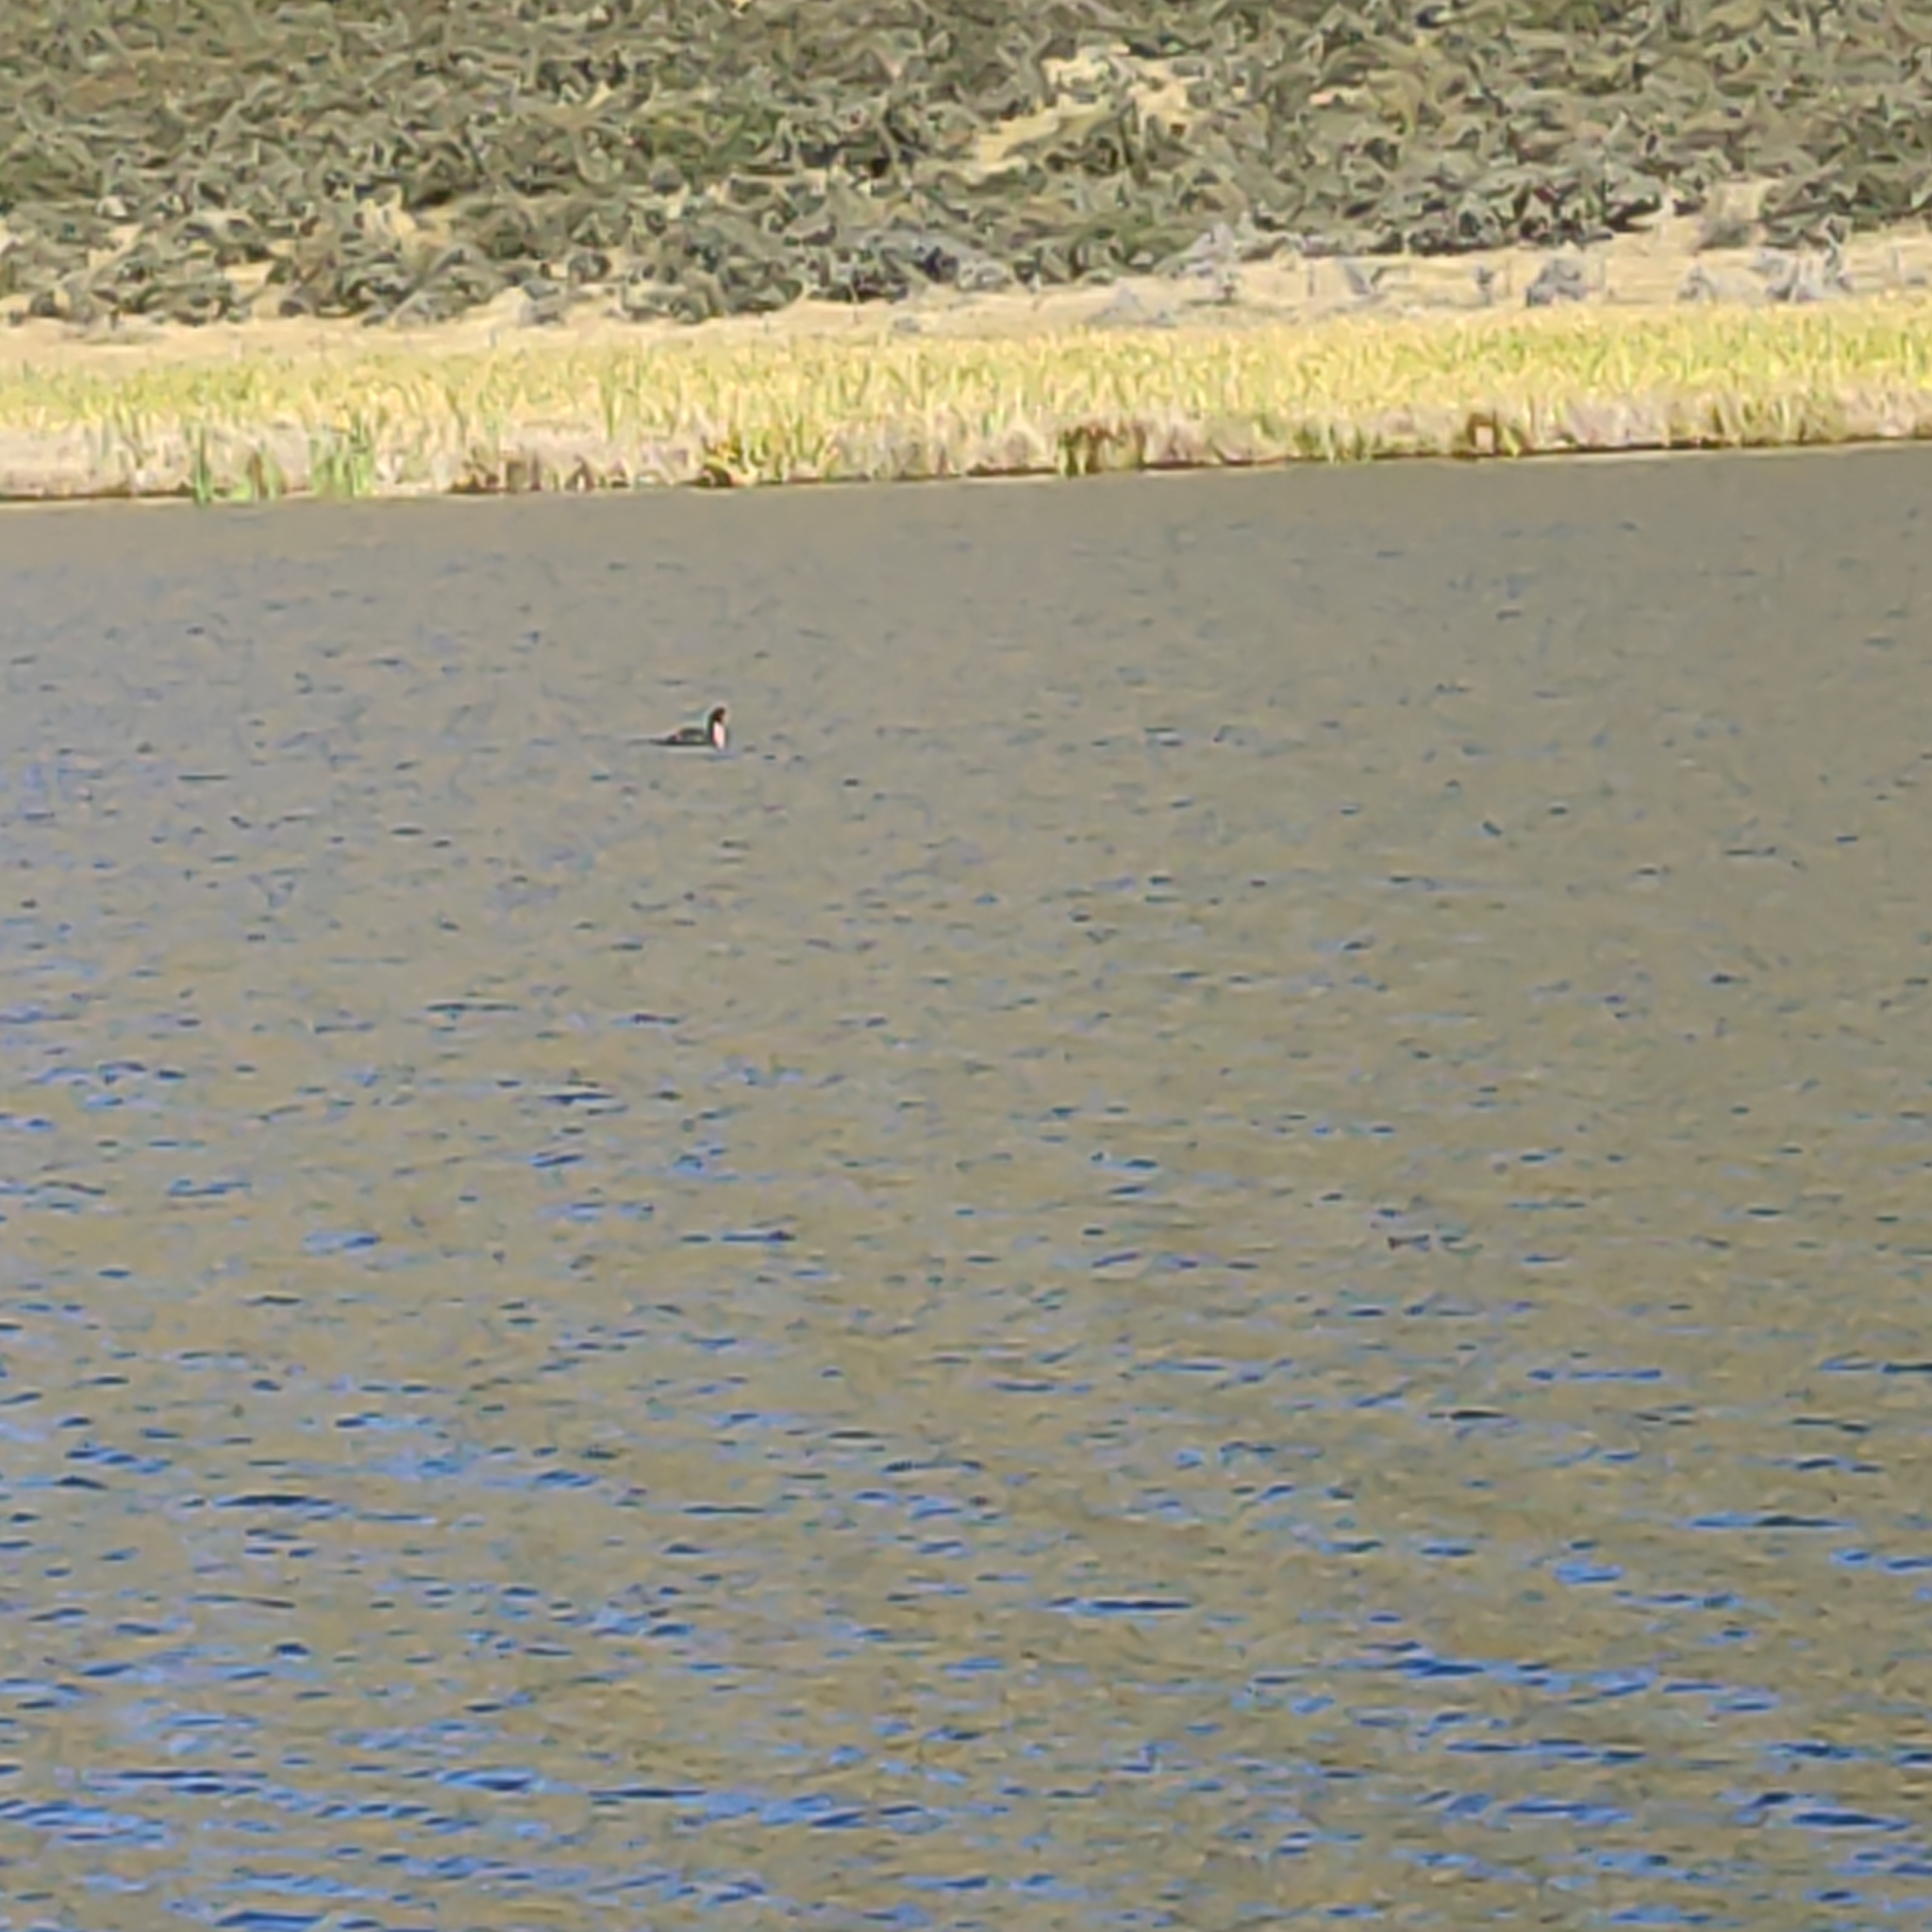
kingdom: Animalia
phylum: Chordata
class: Aves
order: Podicipediformes
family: Podicipedidae
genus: Podiceps
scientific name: Podiceps cristatus
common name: Great crested grebe
